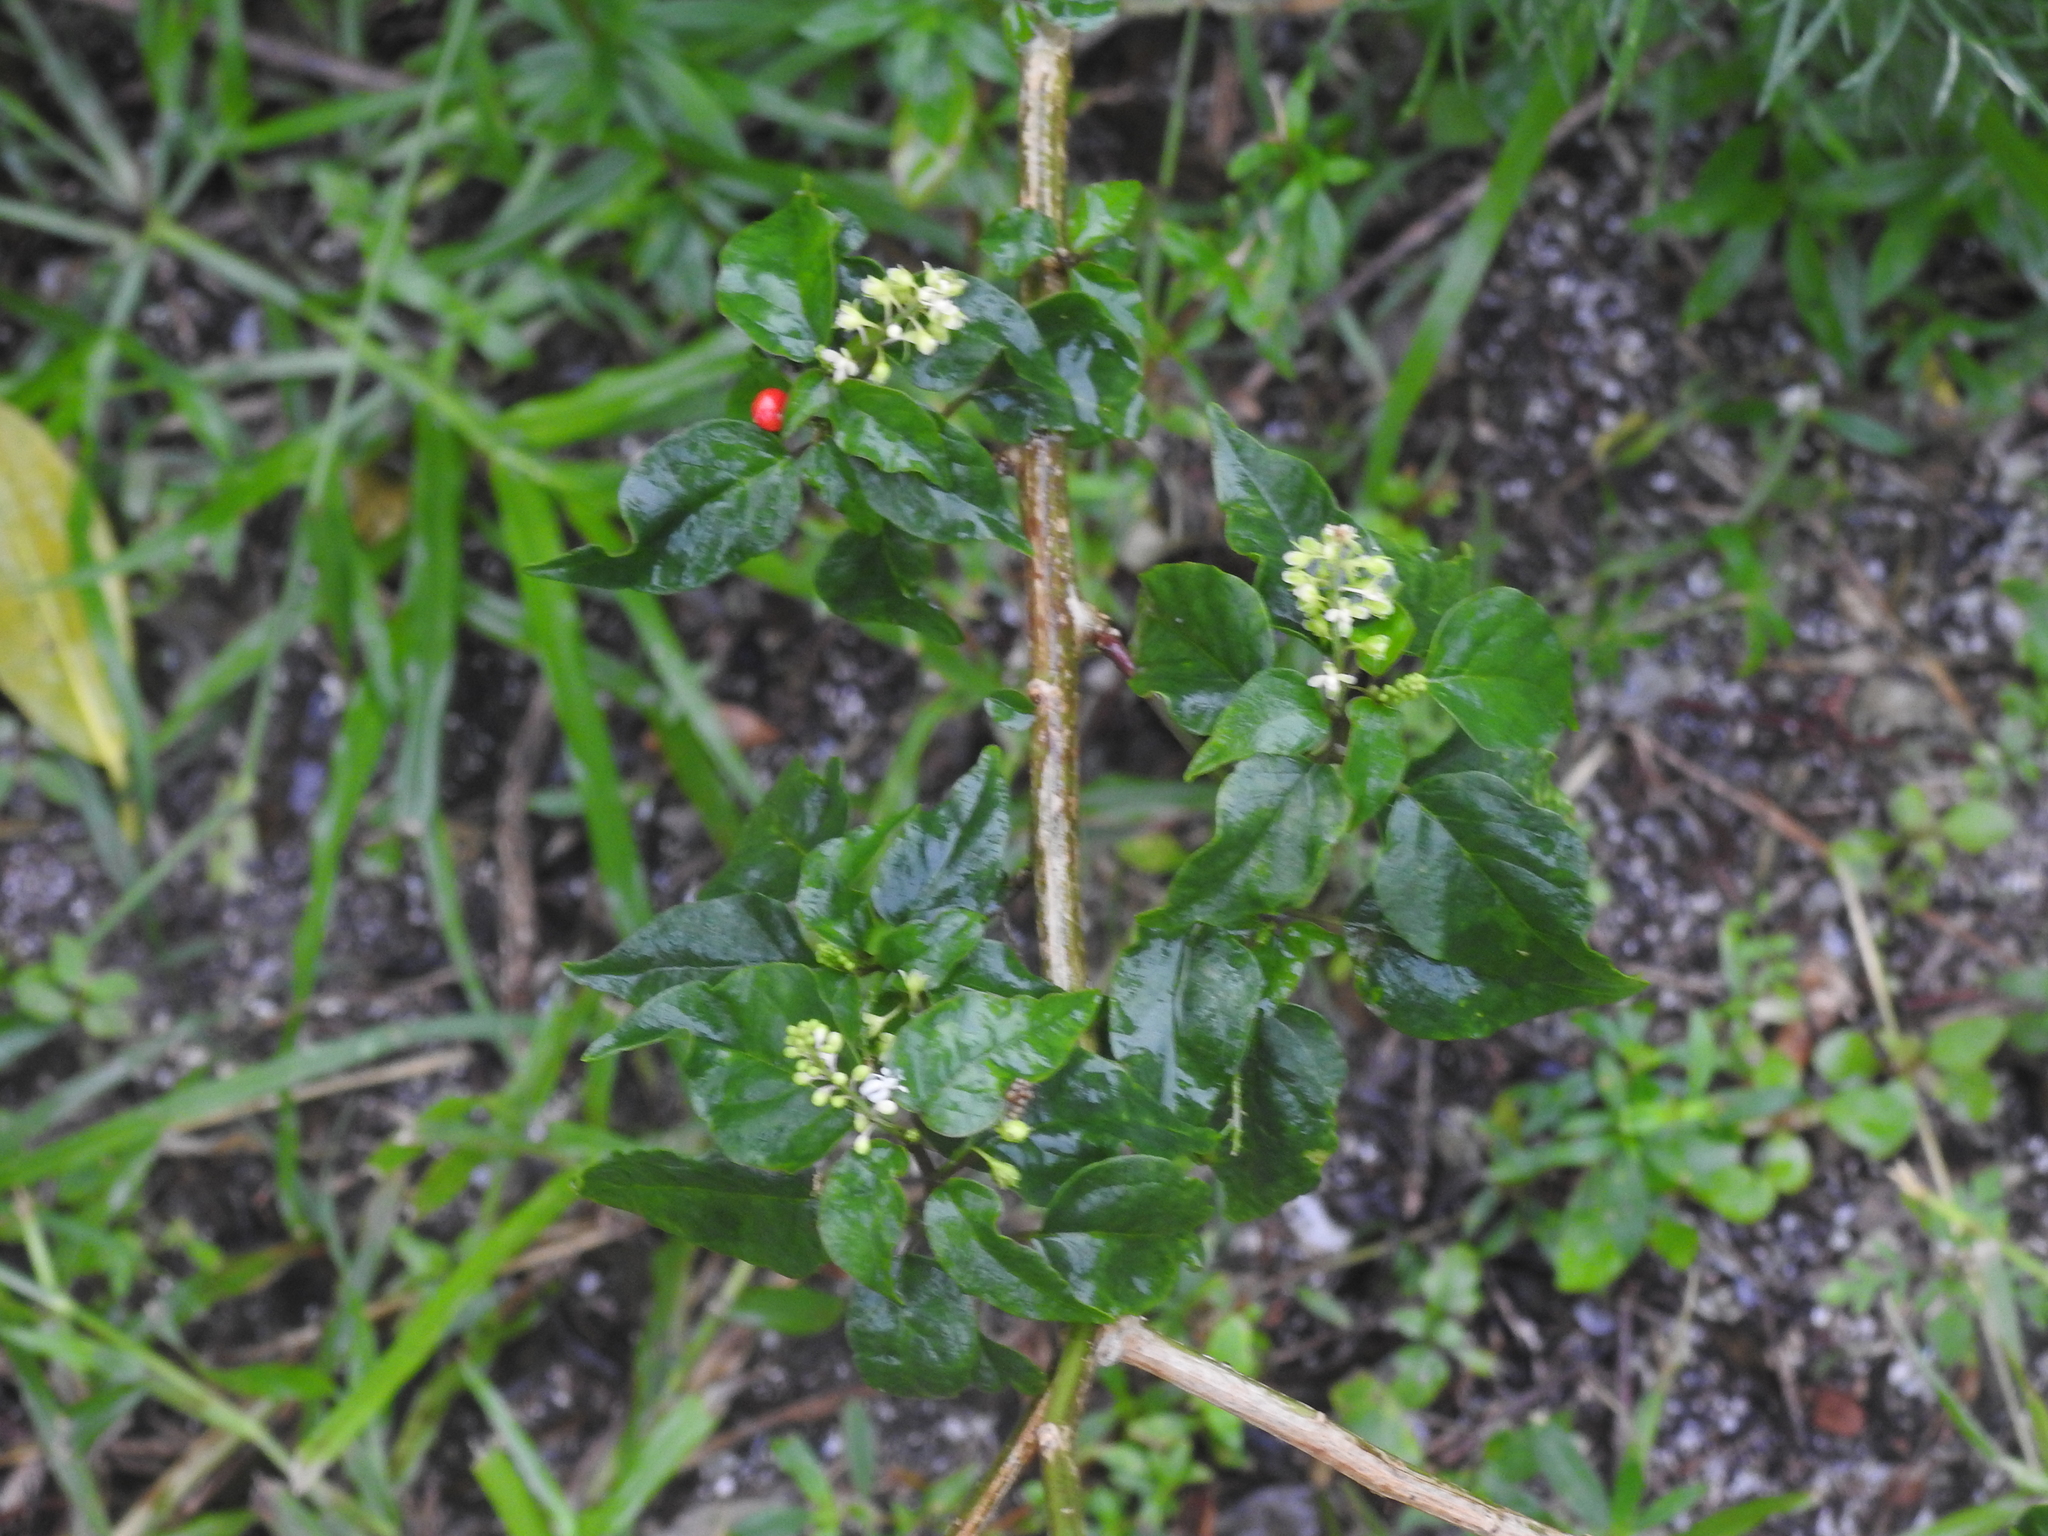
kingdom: Plantae
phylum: Tracheophyta
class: Magnoliopsida
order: Caryophyllales
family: Phytolaccaceae
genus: Rivina
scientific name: Rivina humilis
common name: Rougeplant
